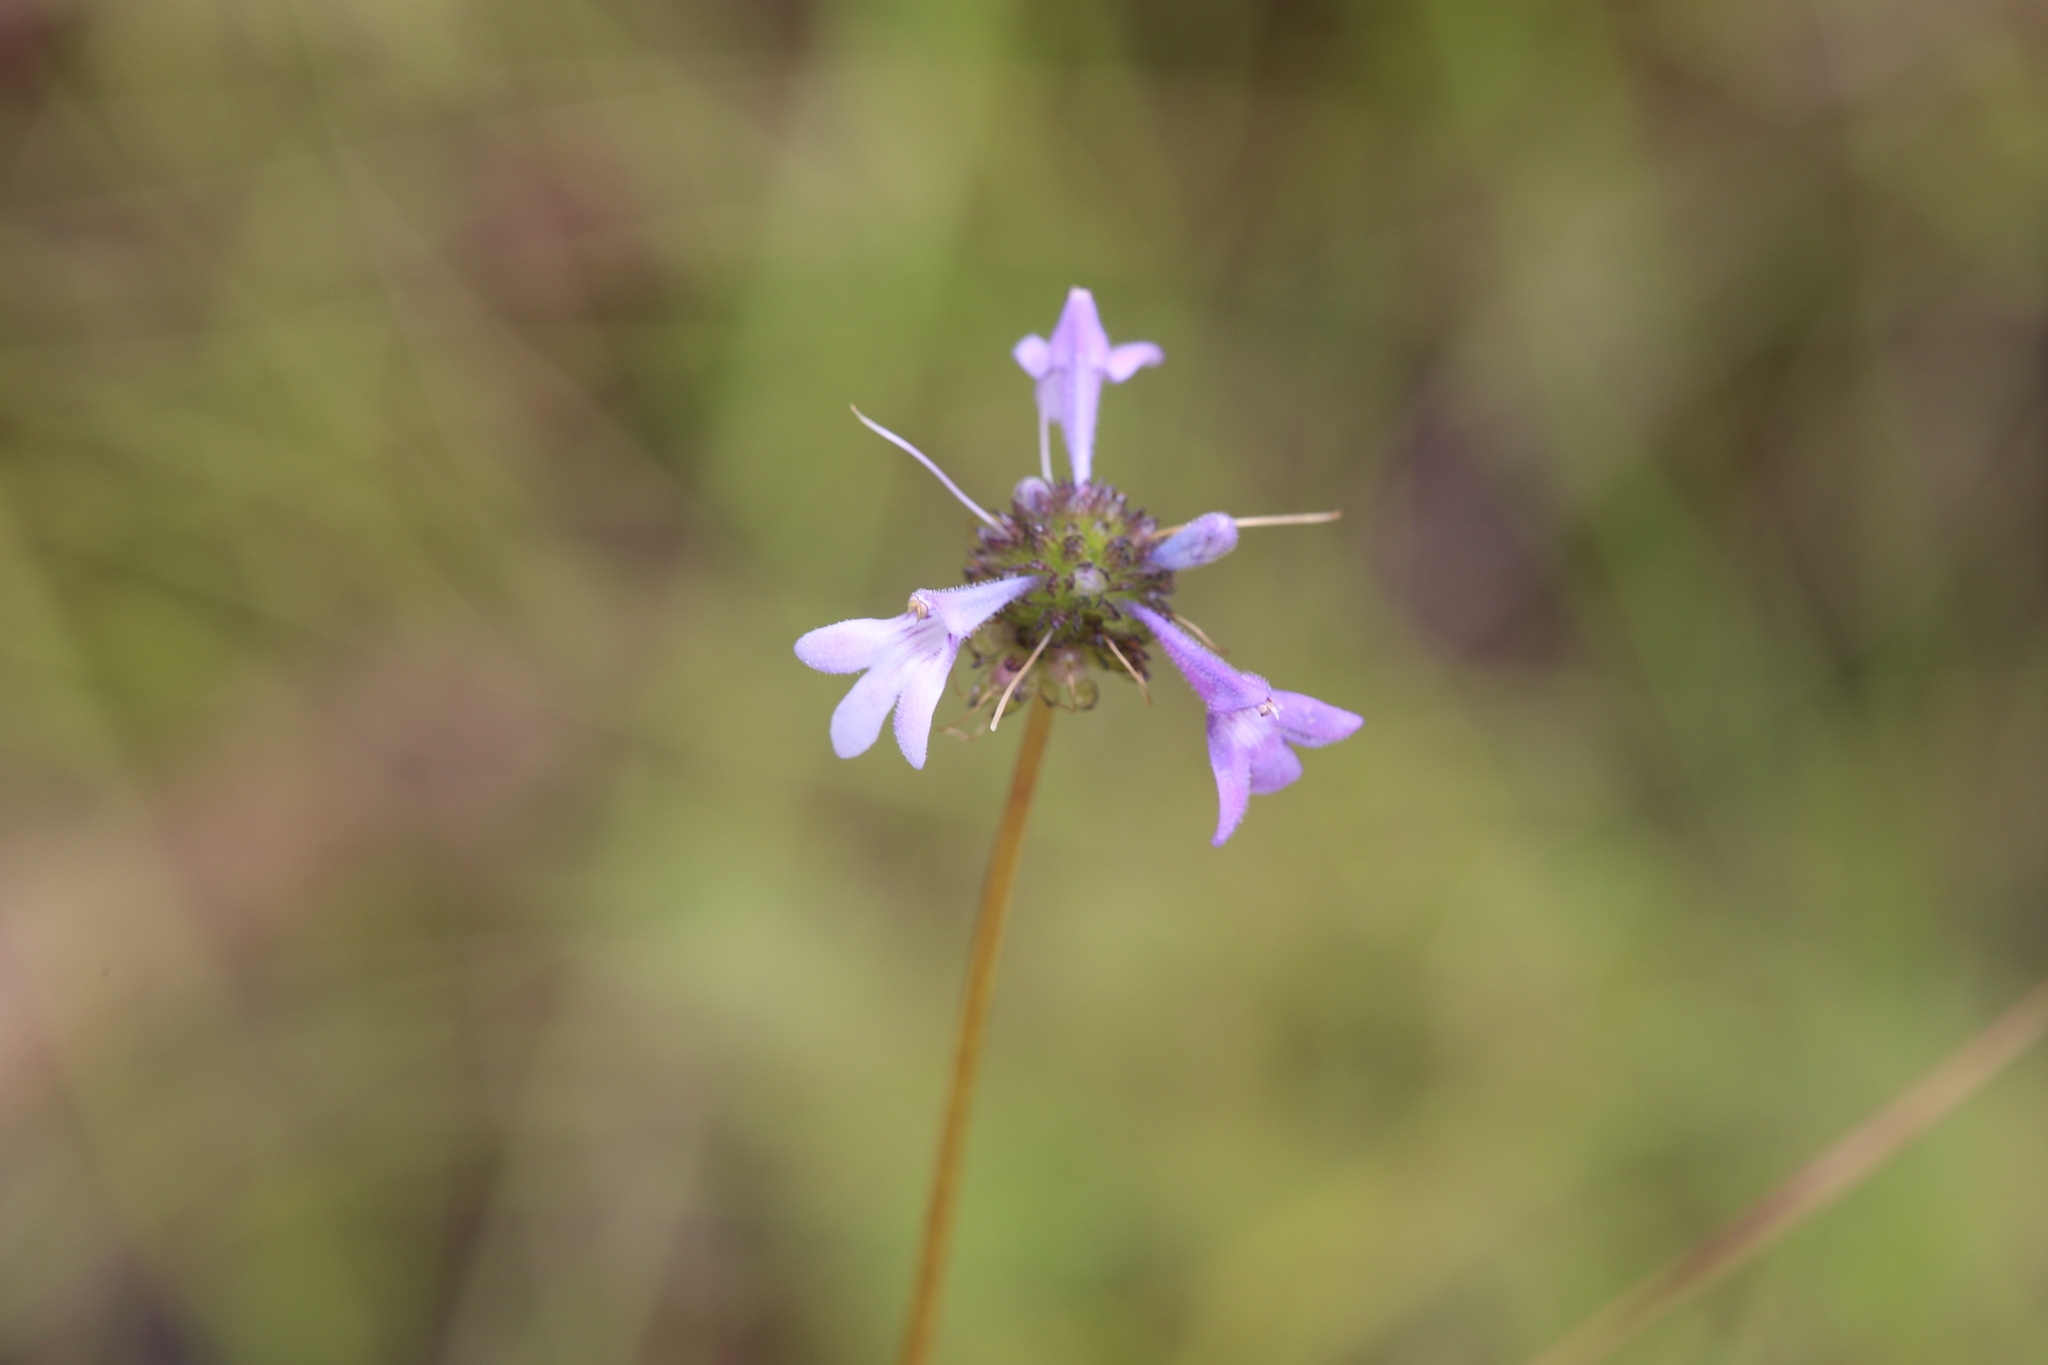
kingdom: Plantae
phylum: Tracheophyta
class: Magnoliopsida
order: Lamiales
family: Linderniaceae
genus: Hemiarrhena
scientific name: Hemiarrhena plantaginea
